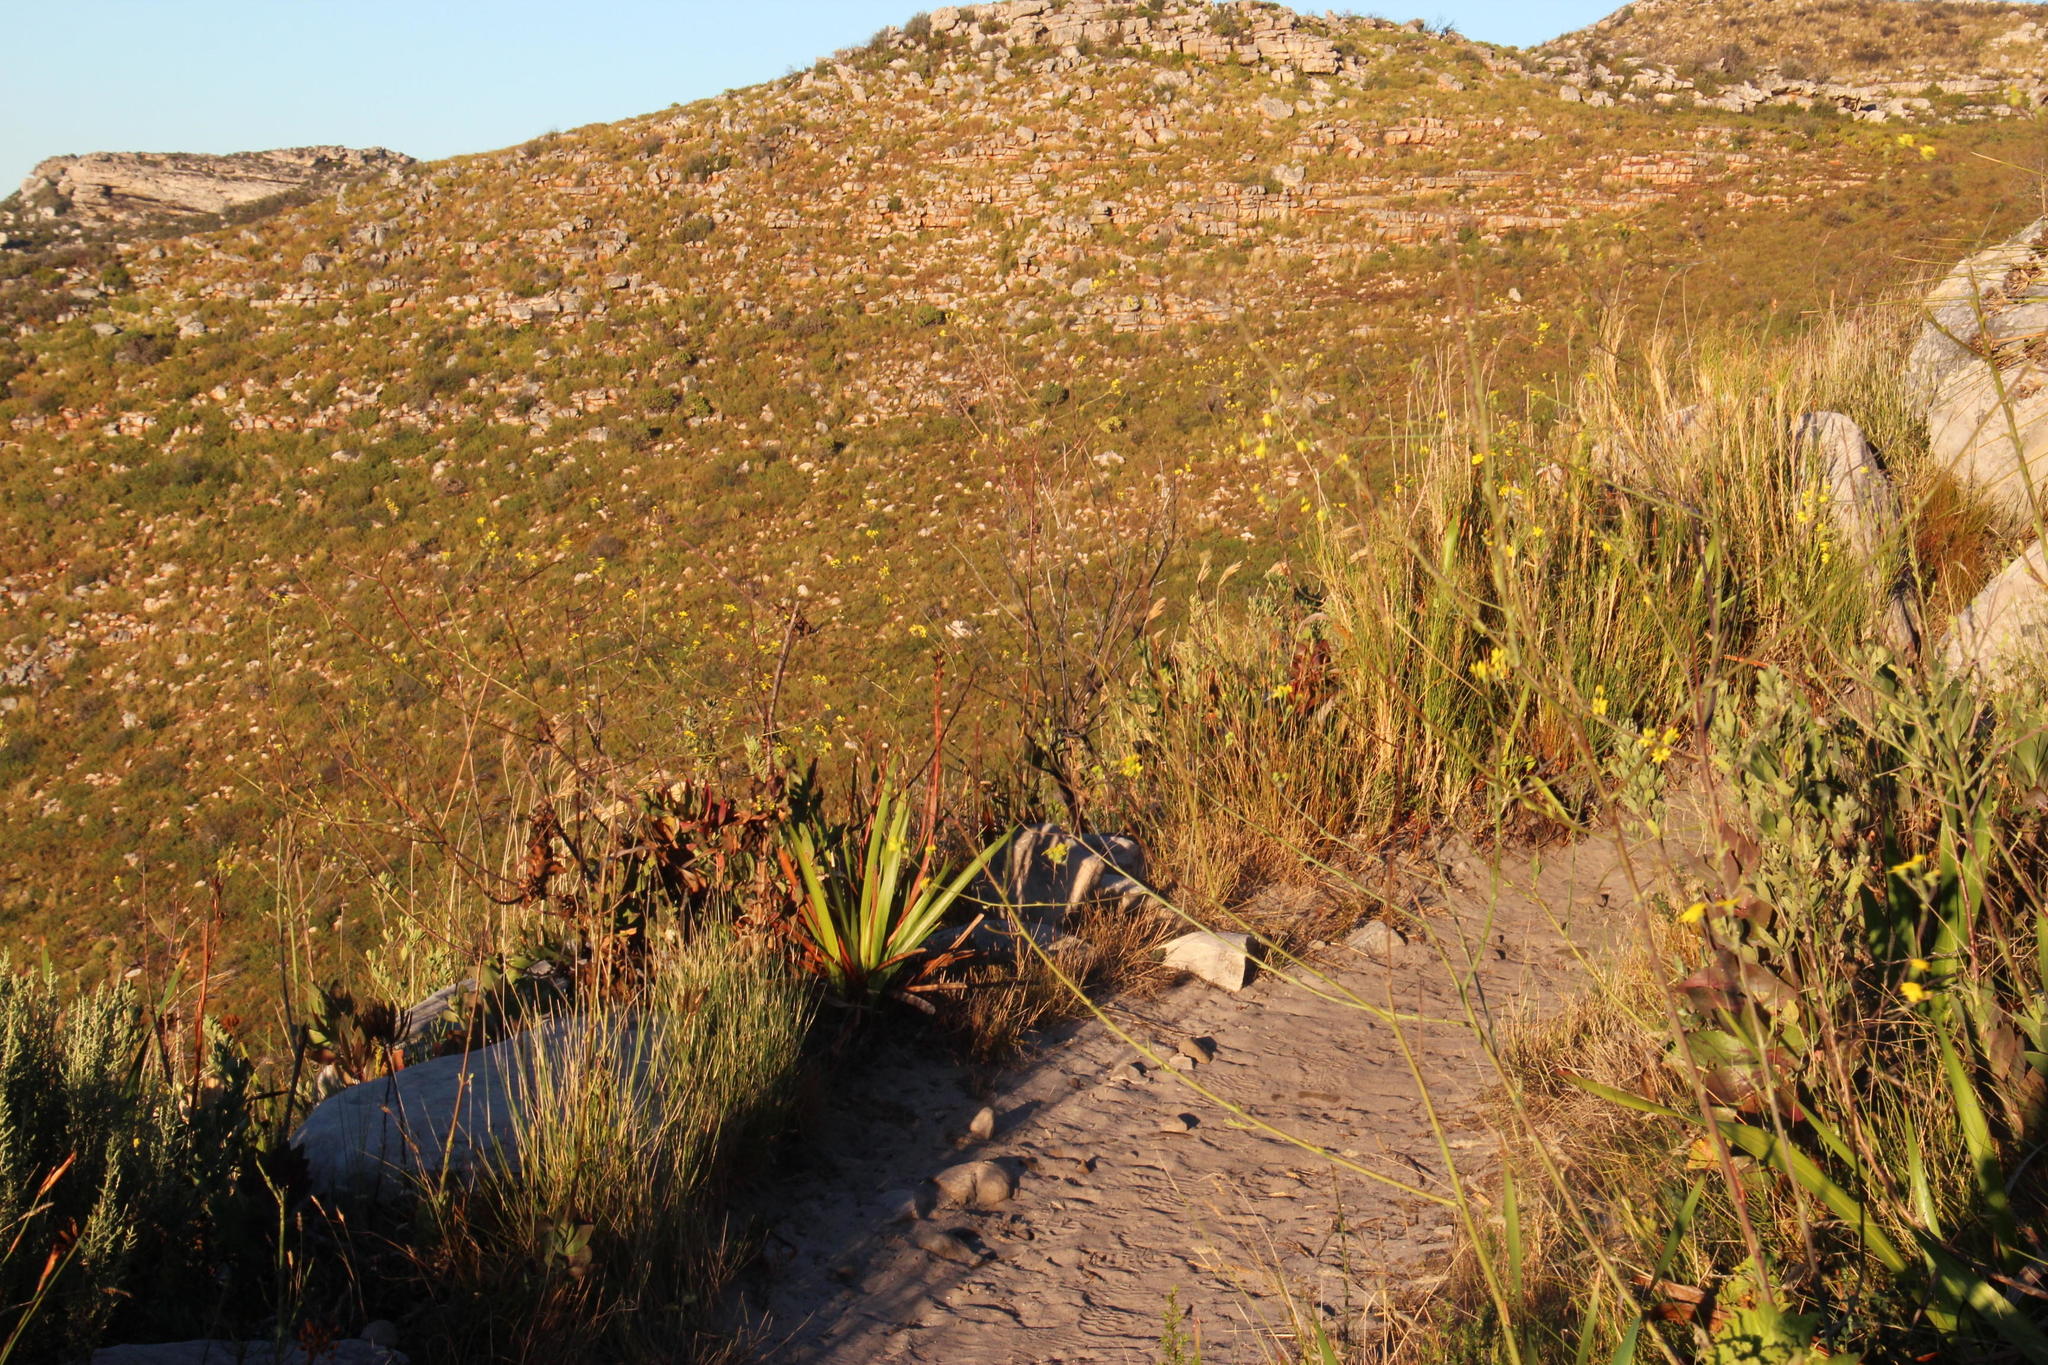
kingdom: Plantae
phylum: Tracheophyta
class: Magnoliopsida
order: Asterales
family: Asteraceae
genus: Othonna
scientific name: Othonna quinquedentata
